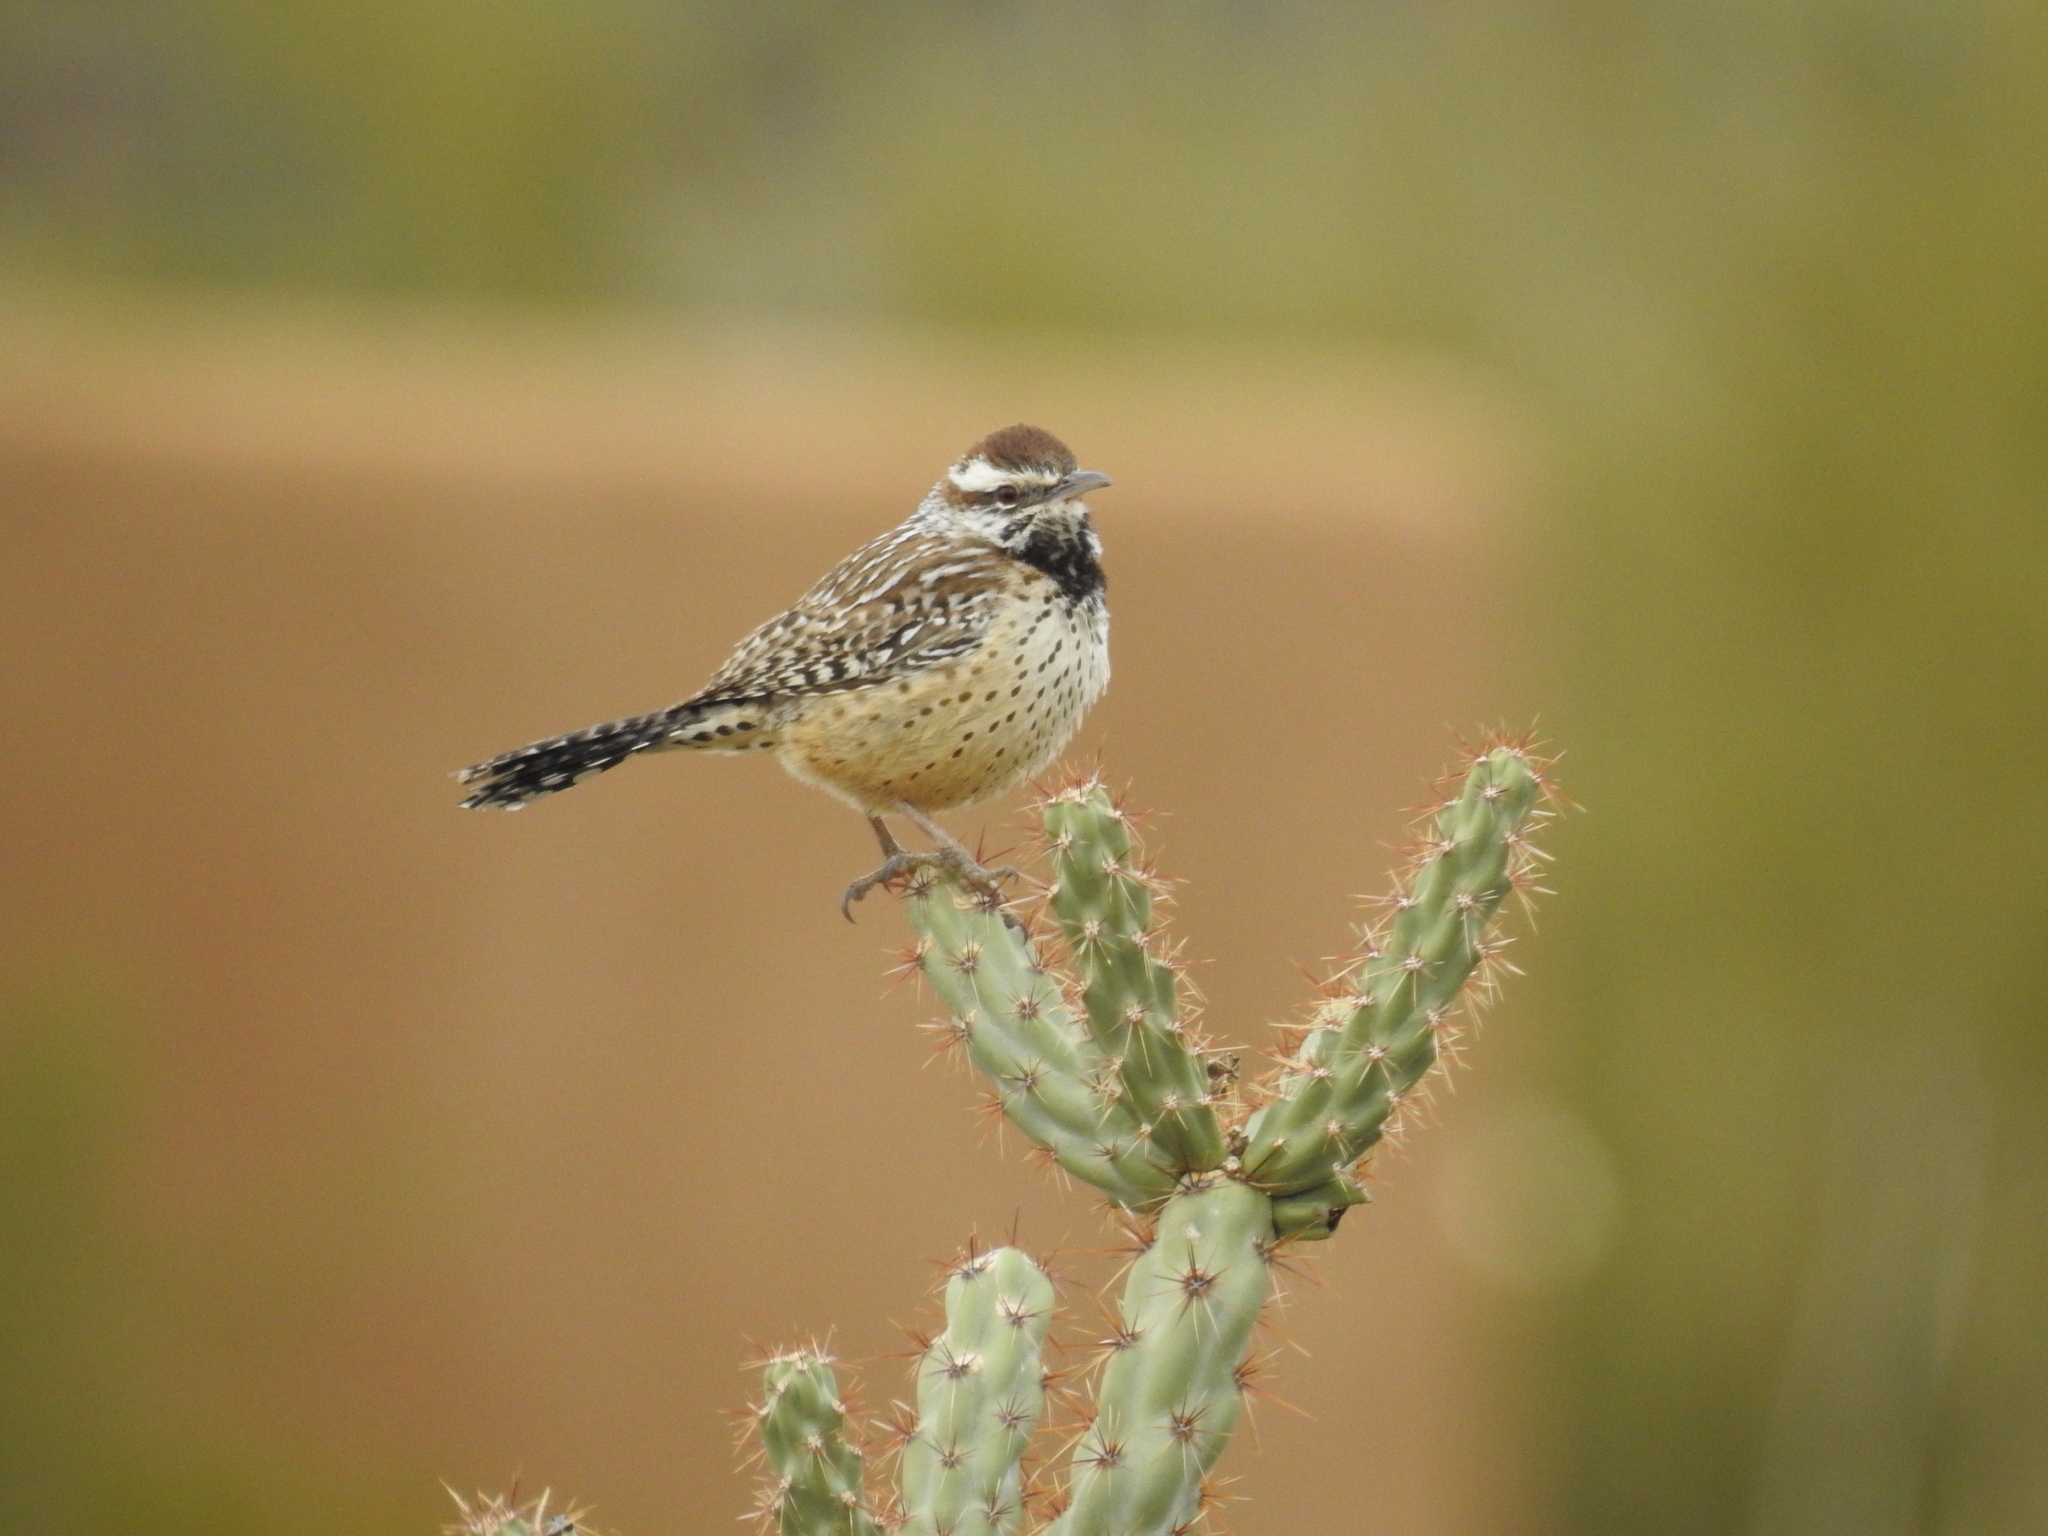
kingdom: Animalia
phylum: Chordata
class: Aves
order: Passeriformes
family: Troglodytidae
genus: Campylorhynchus
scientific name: Campylorhynchus brunneicapillus
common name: Cactus wren
